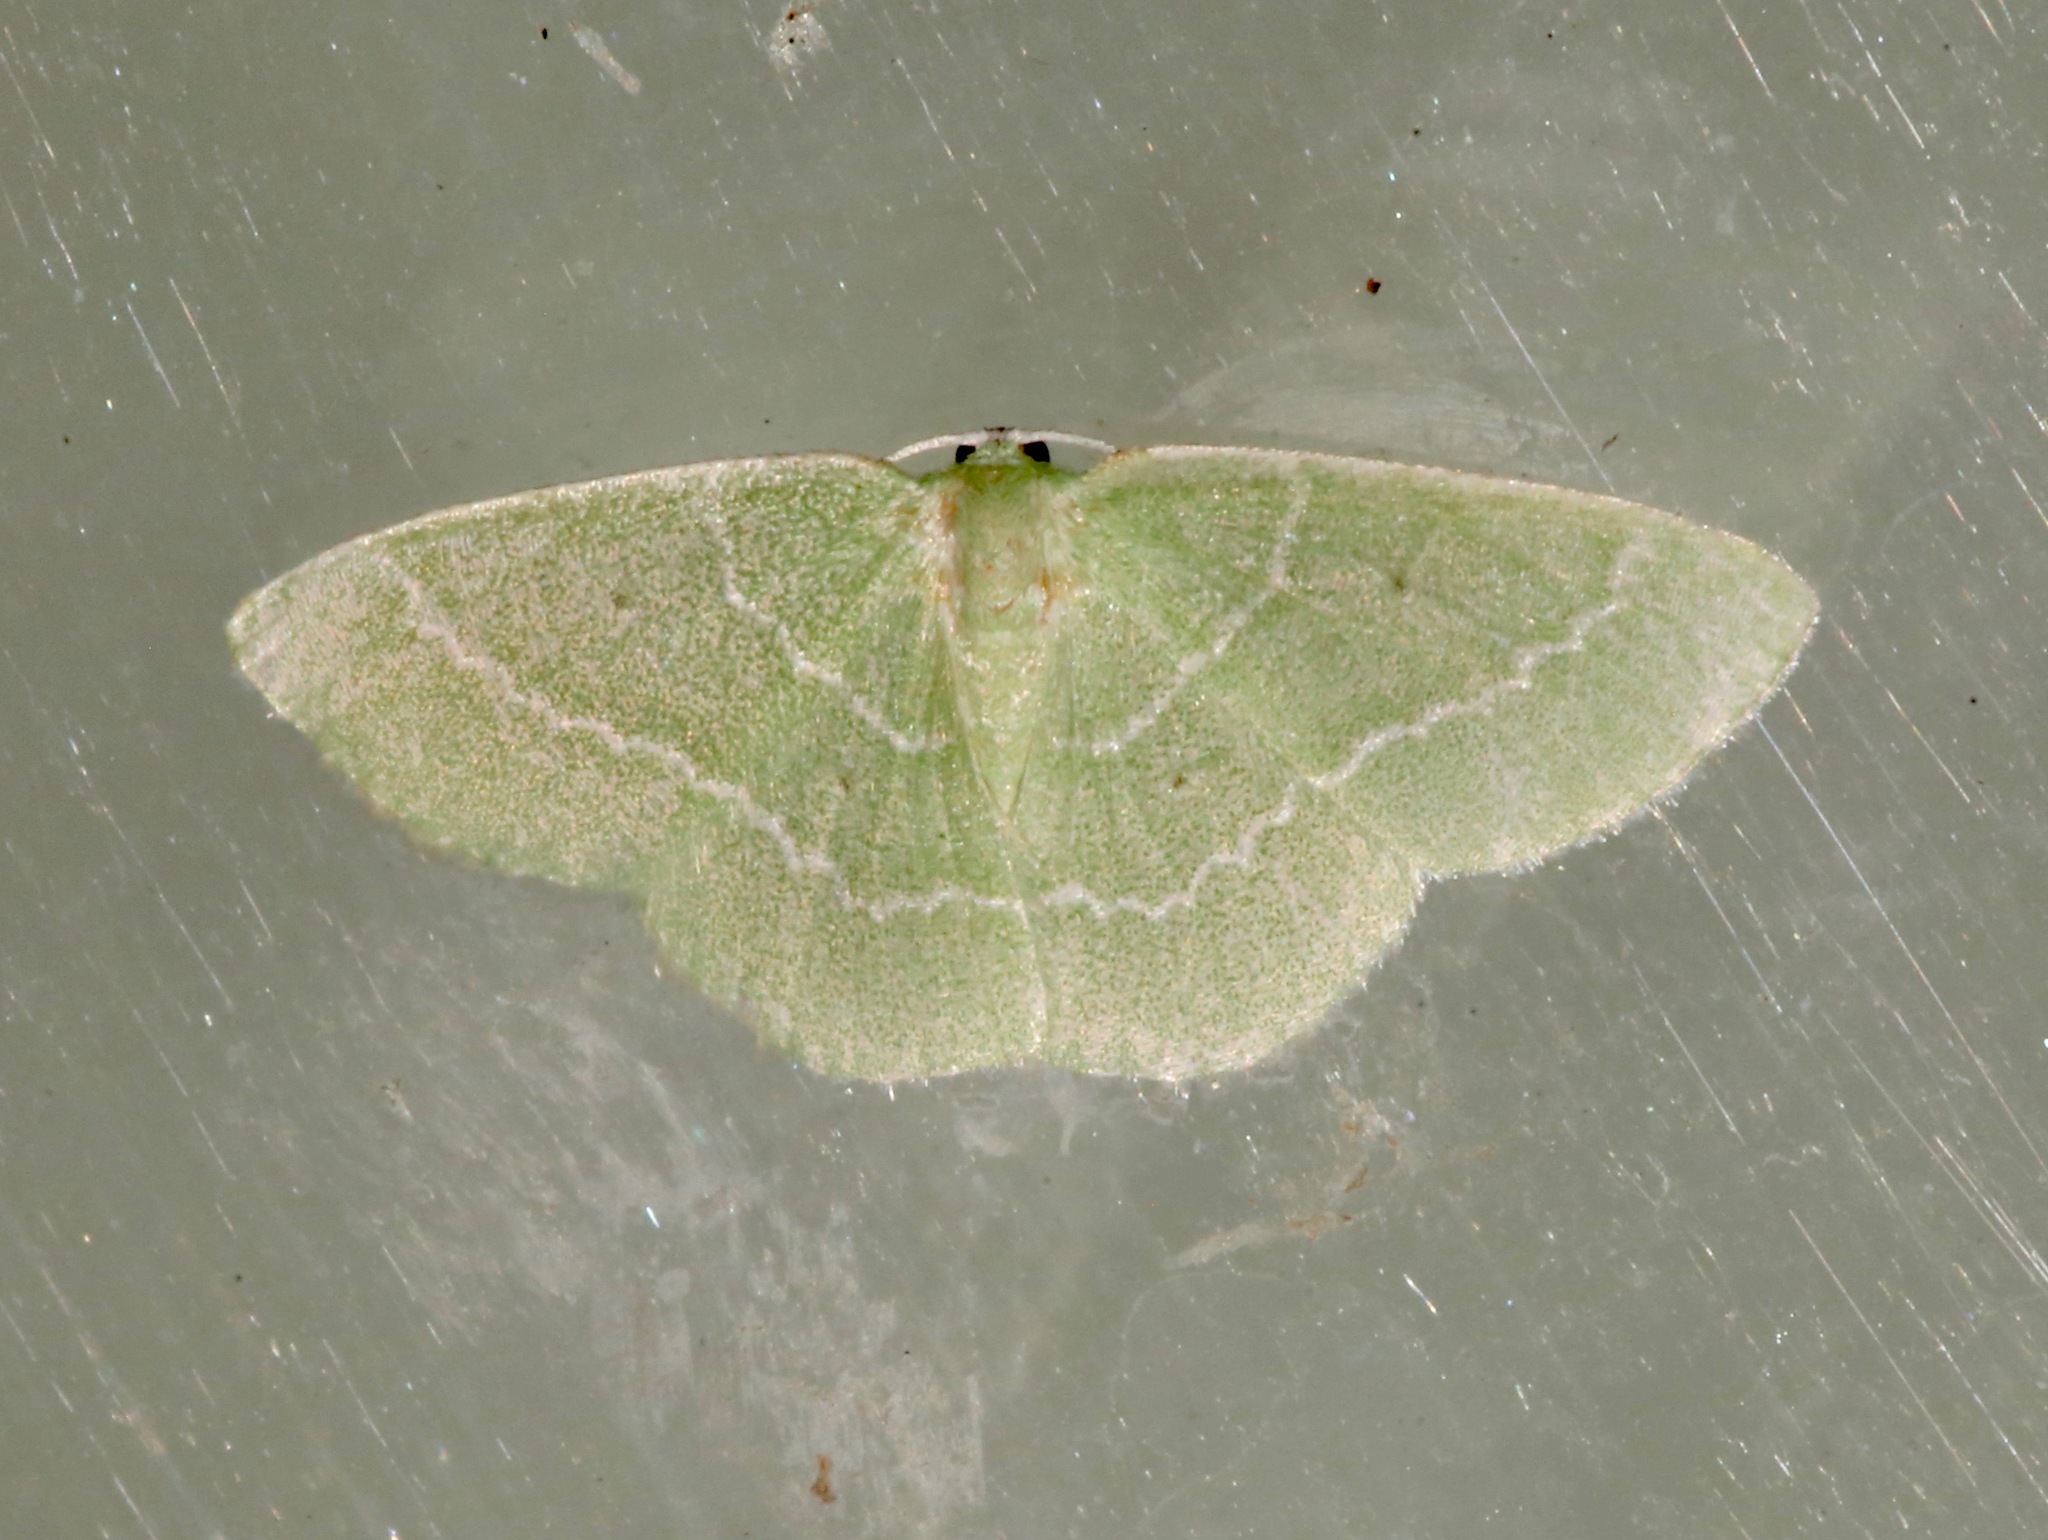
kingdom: Animalia
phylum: Arthropoda
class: Insecta
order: Lepidoptera
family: Geometridae
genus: Nemoria
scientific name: Nemoria elfa
